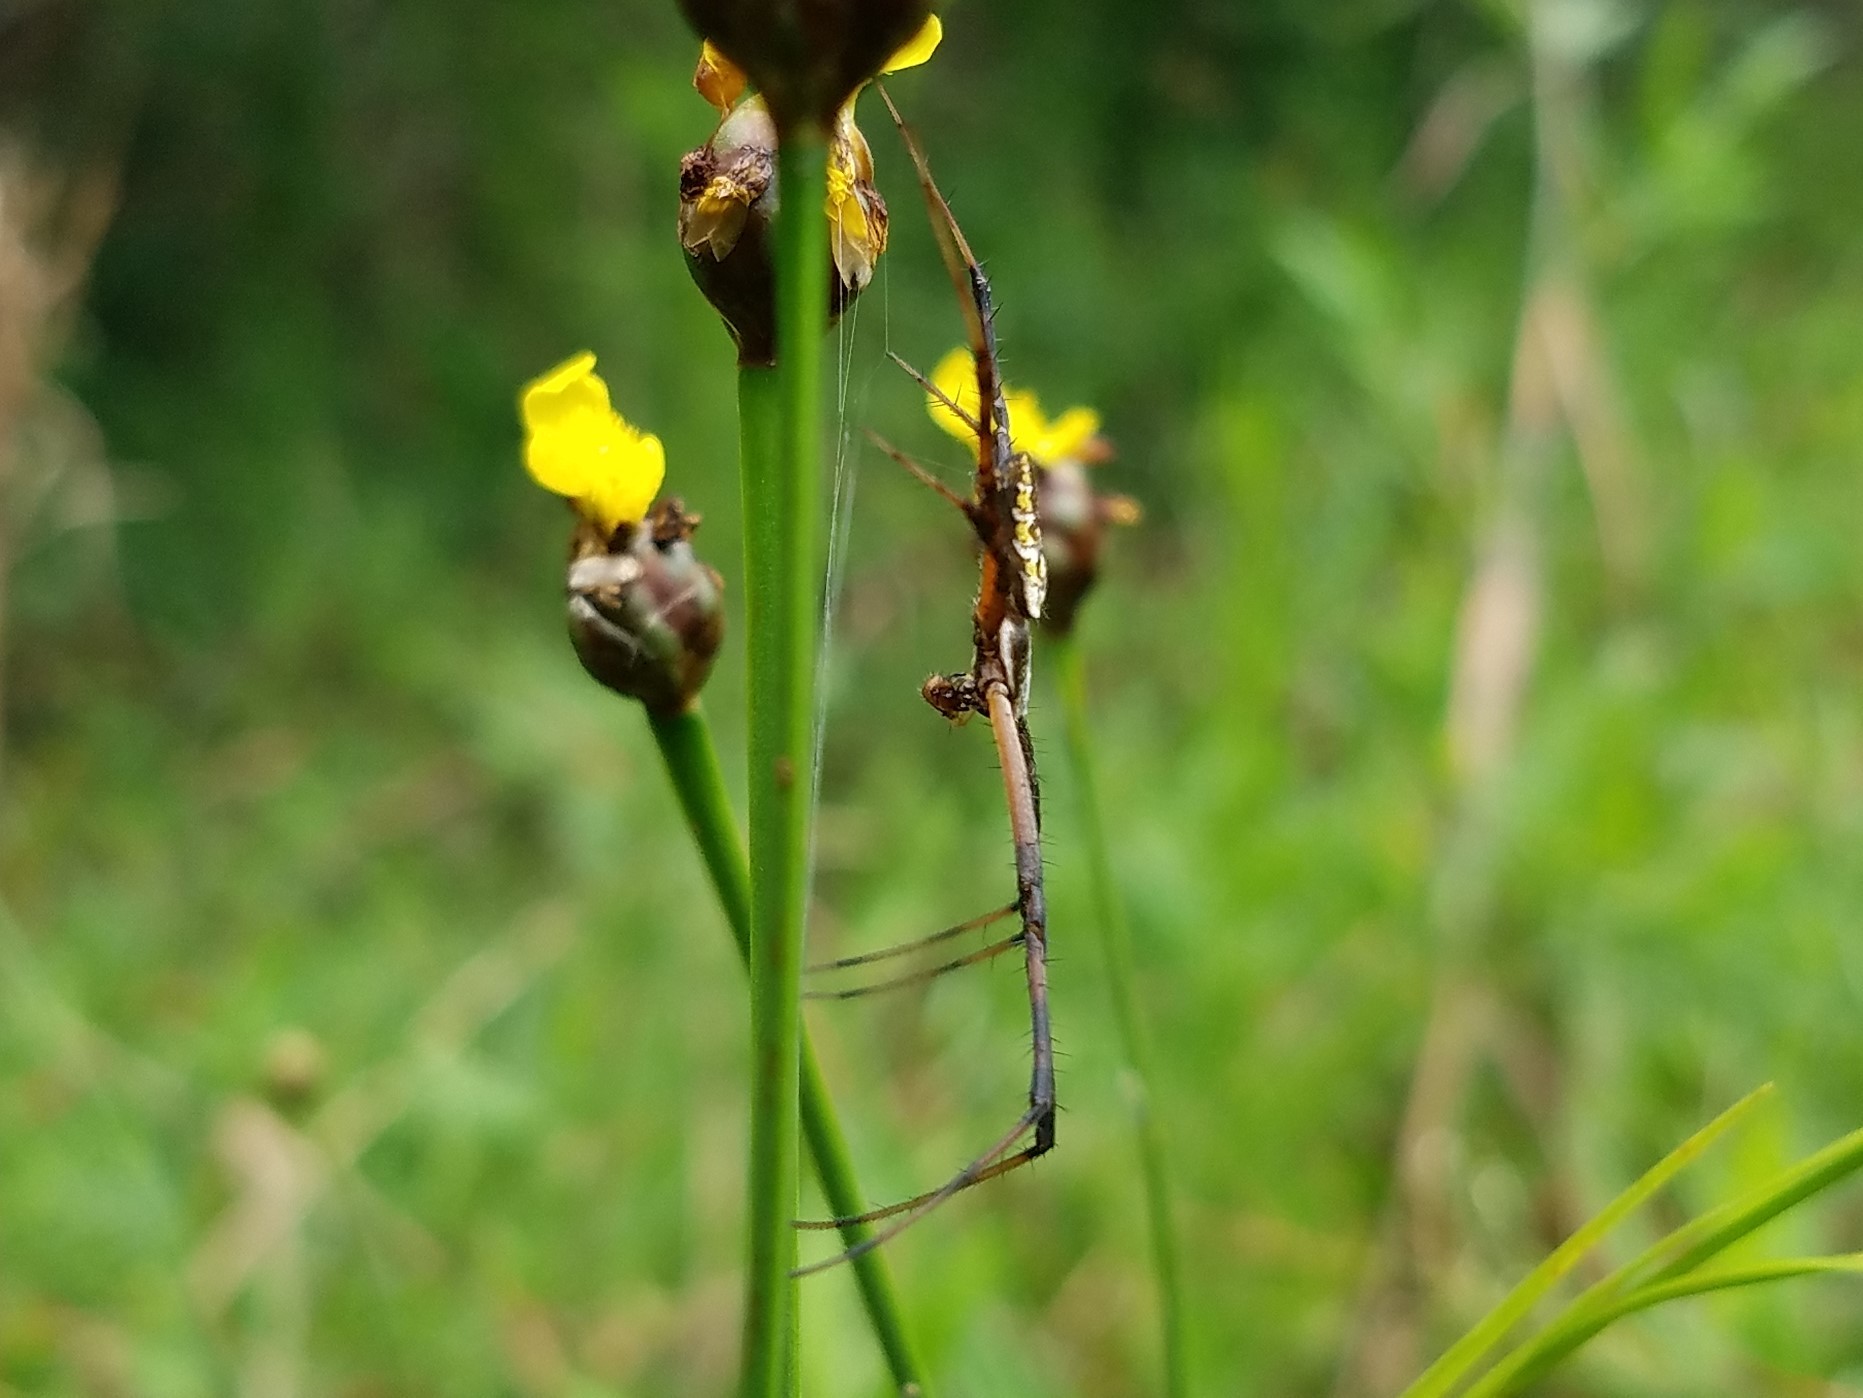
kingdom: Animalia
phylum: Arthropoda
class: Arachnida
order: Araneae
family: Araneidae
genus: Argiope
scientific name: Argiope aurantia
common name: Orb weavers
